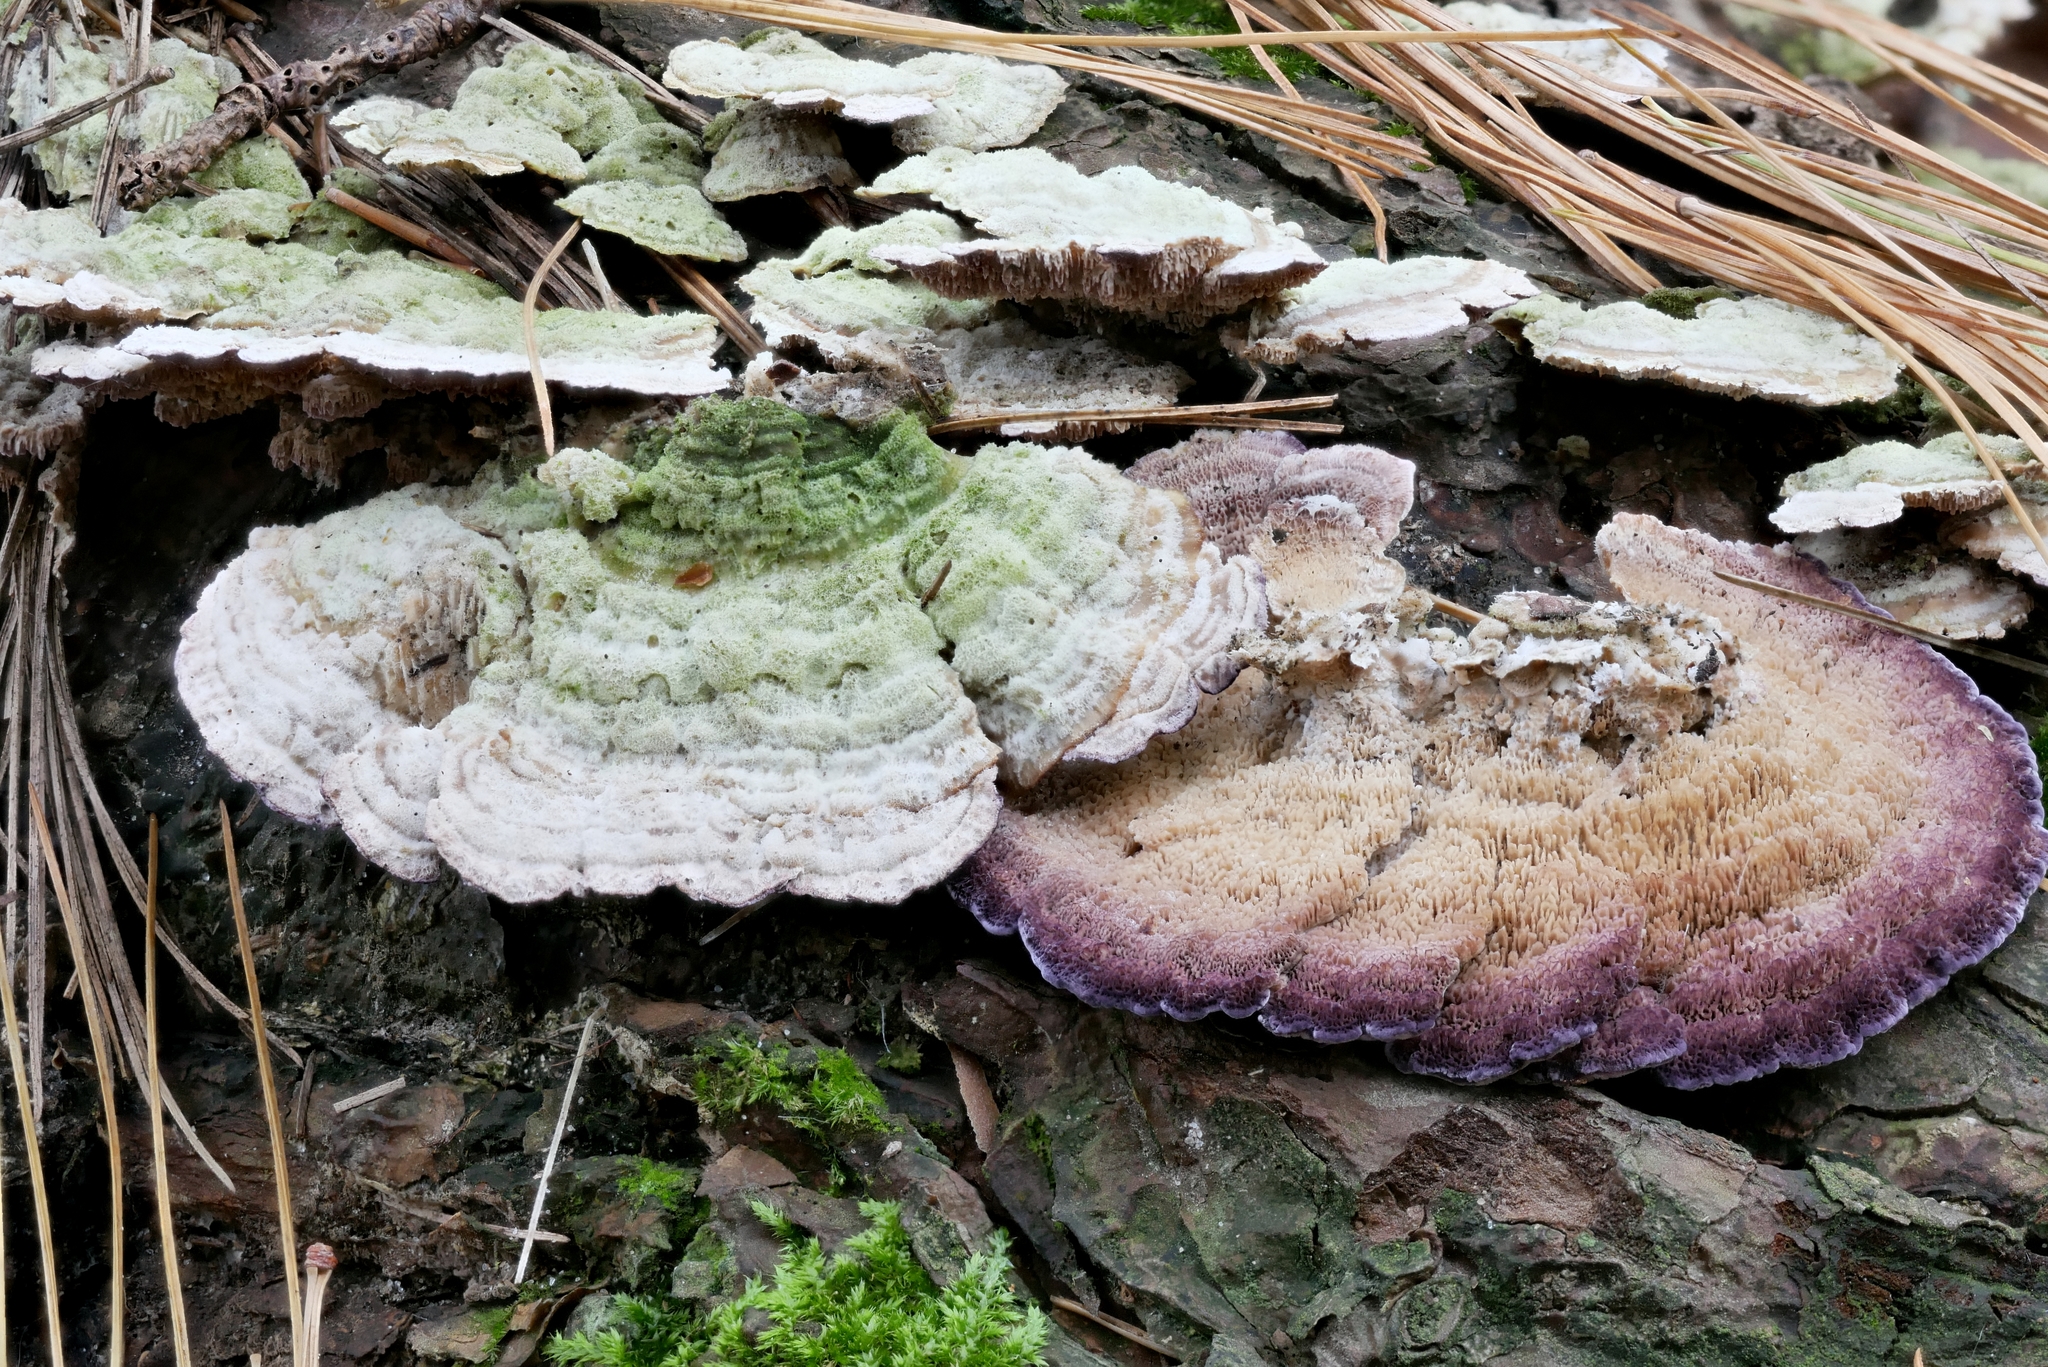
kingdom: Fungi
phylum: Basidiomycota
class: Agaricomycetes
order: Hymenochaetales
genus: Trichaptum
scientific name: Trichaptum fuscoviolaceum
